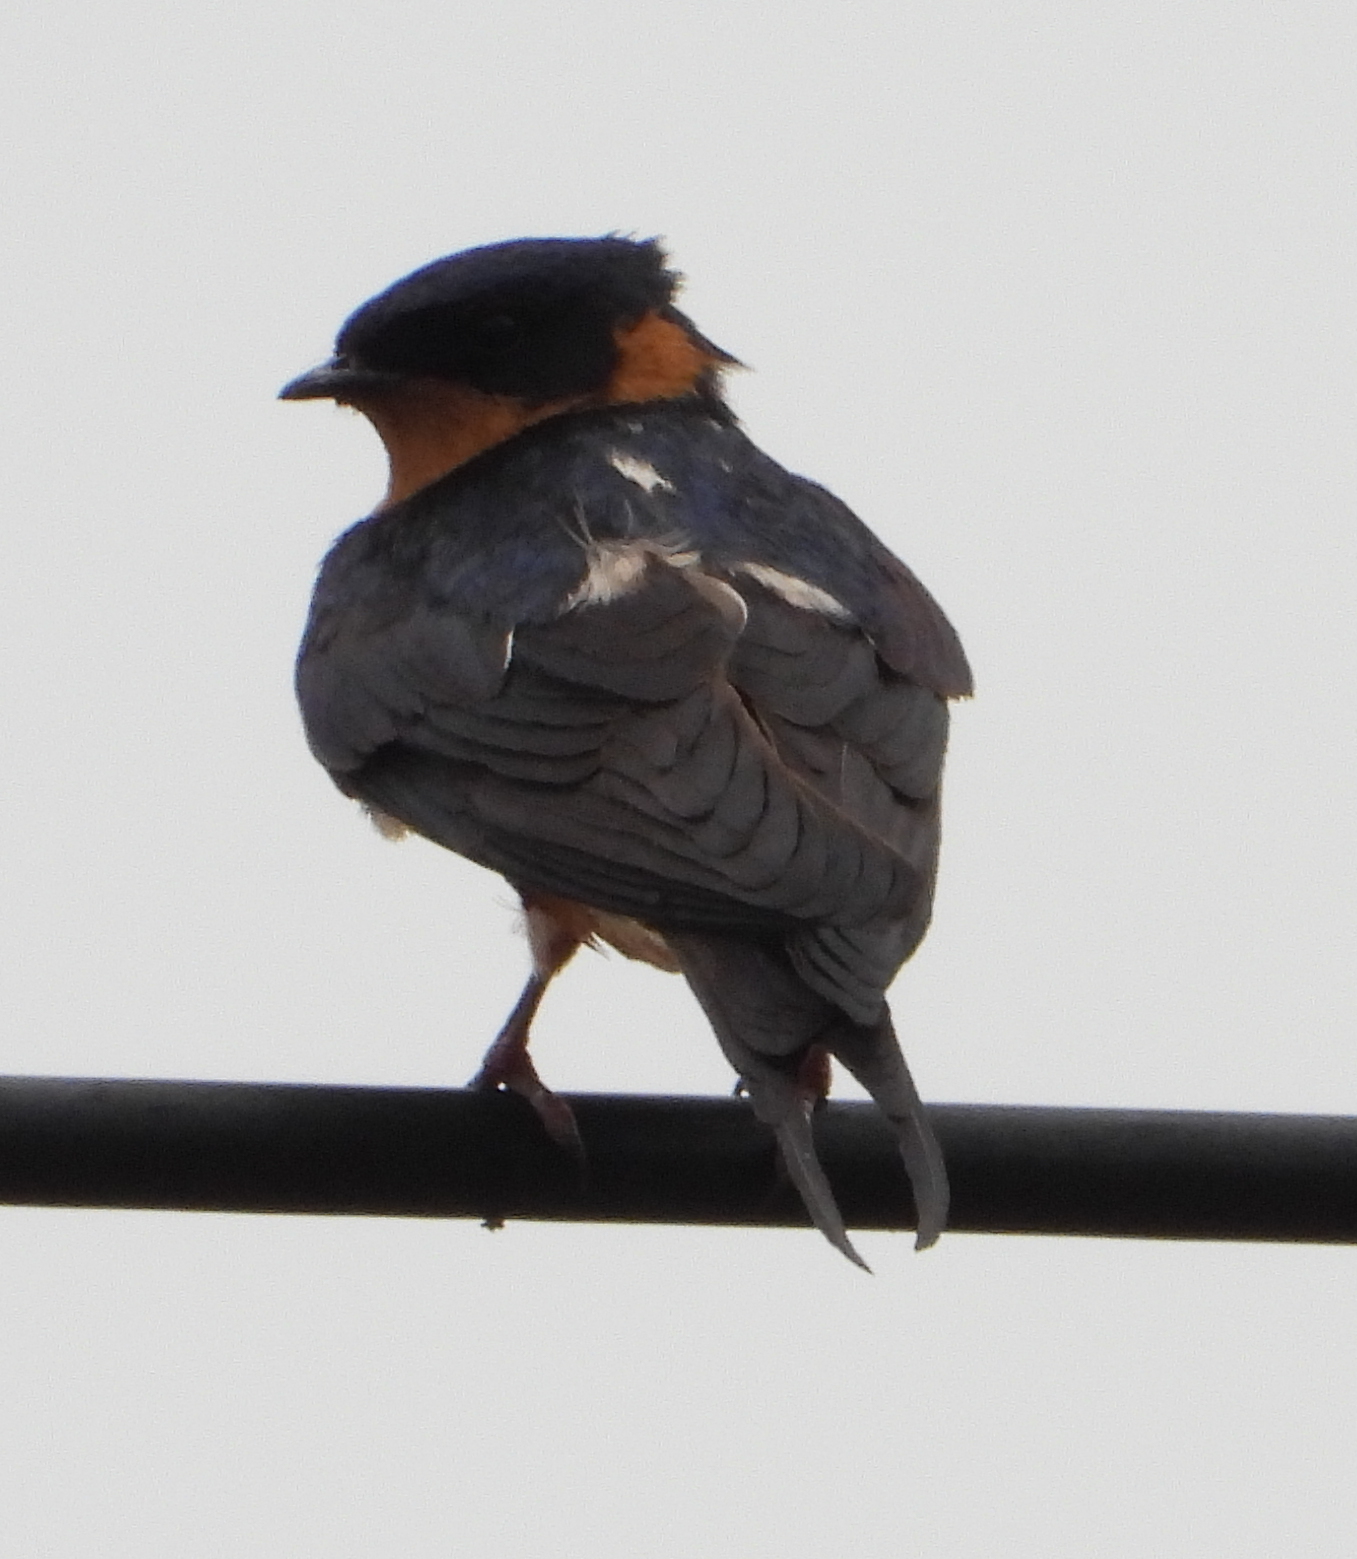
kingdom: Animalia
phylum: Chordata
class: Aves
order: Passeriformes
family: Hirundinidae
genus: Cecropis
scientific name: Cecropis semirufa
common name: Red-breasted swallow
